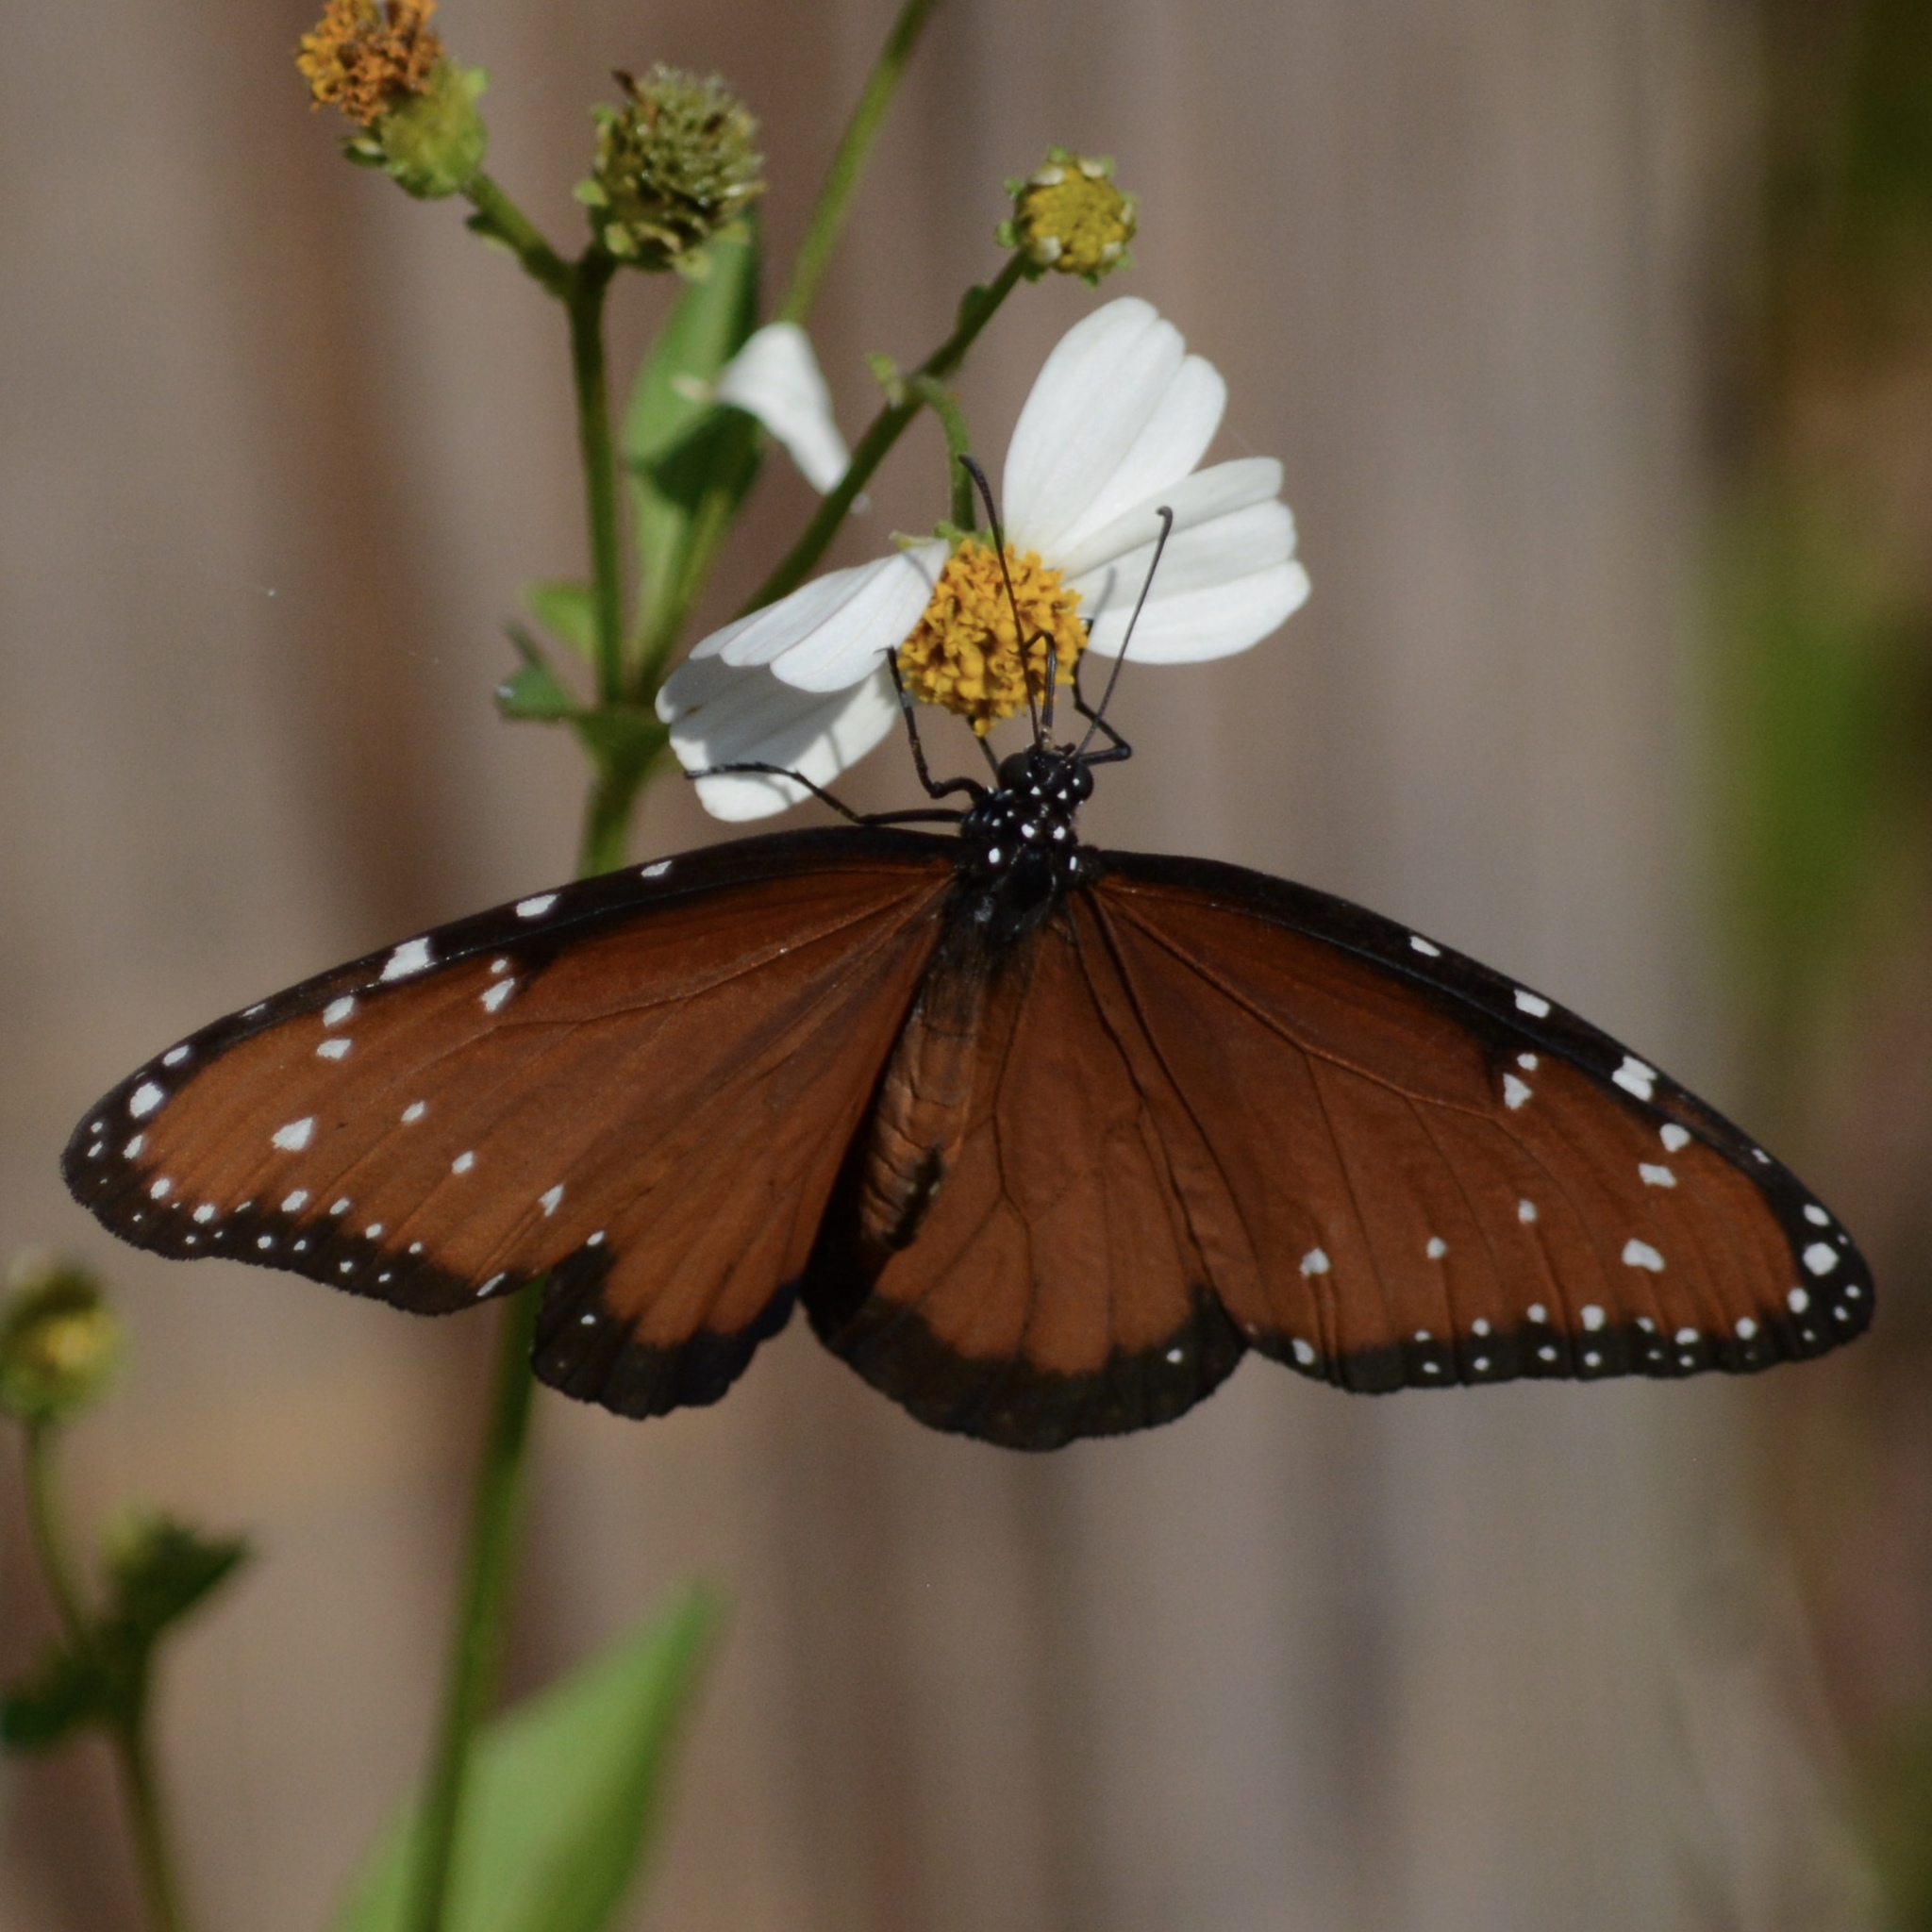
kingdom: Animalia
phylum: Arthropoda
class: Insecta
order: Lepidoptera
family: Nymphalidae
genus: Danaus
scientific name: Danaus gilippus
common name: Queen
